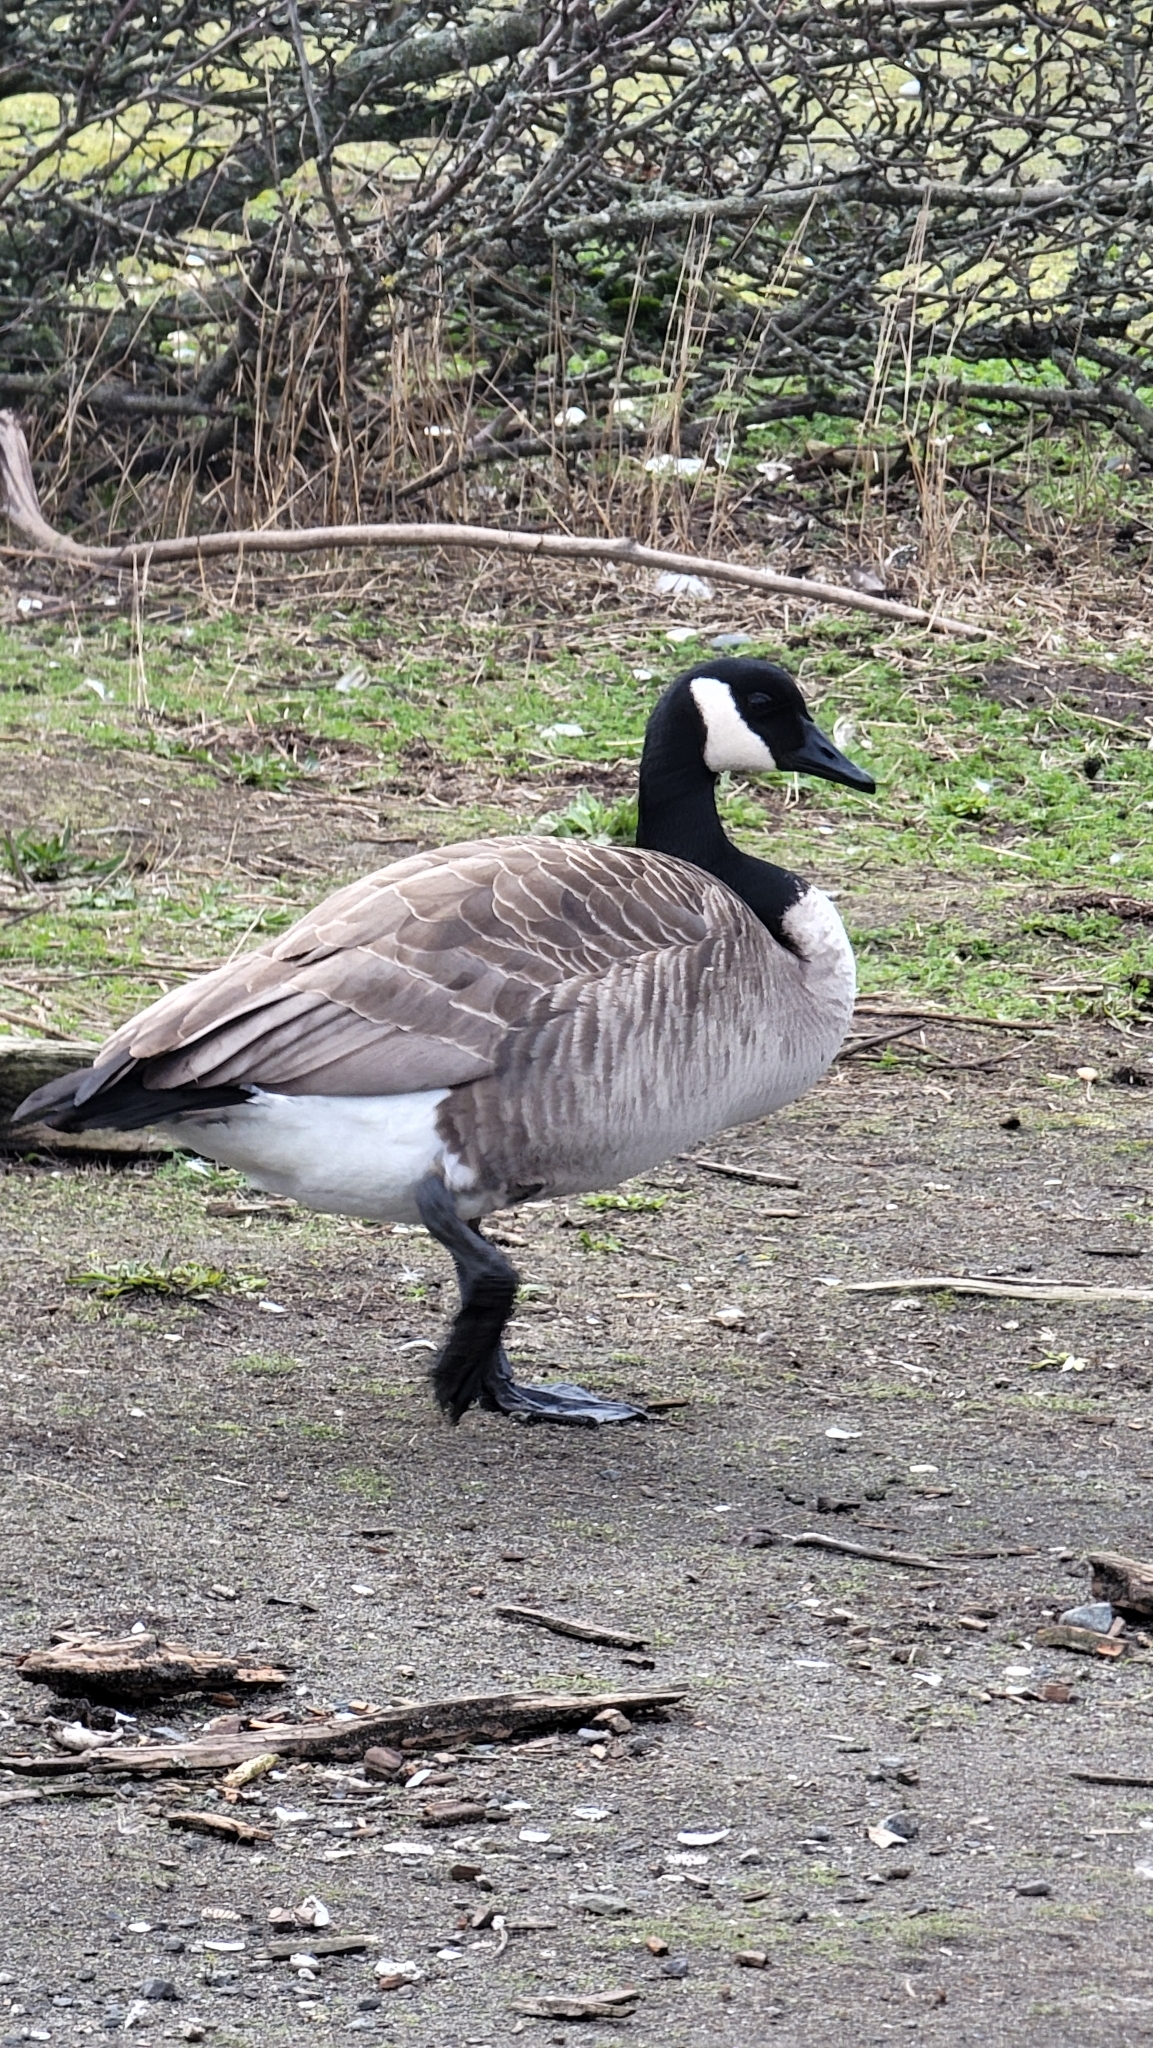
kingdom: Animalia
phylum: Chordata
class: Aves
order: Anseriformes
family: Anatidae
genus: Branta
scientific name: Branta canadensis
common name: Canada goose
